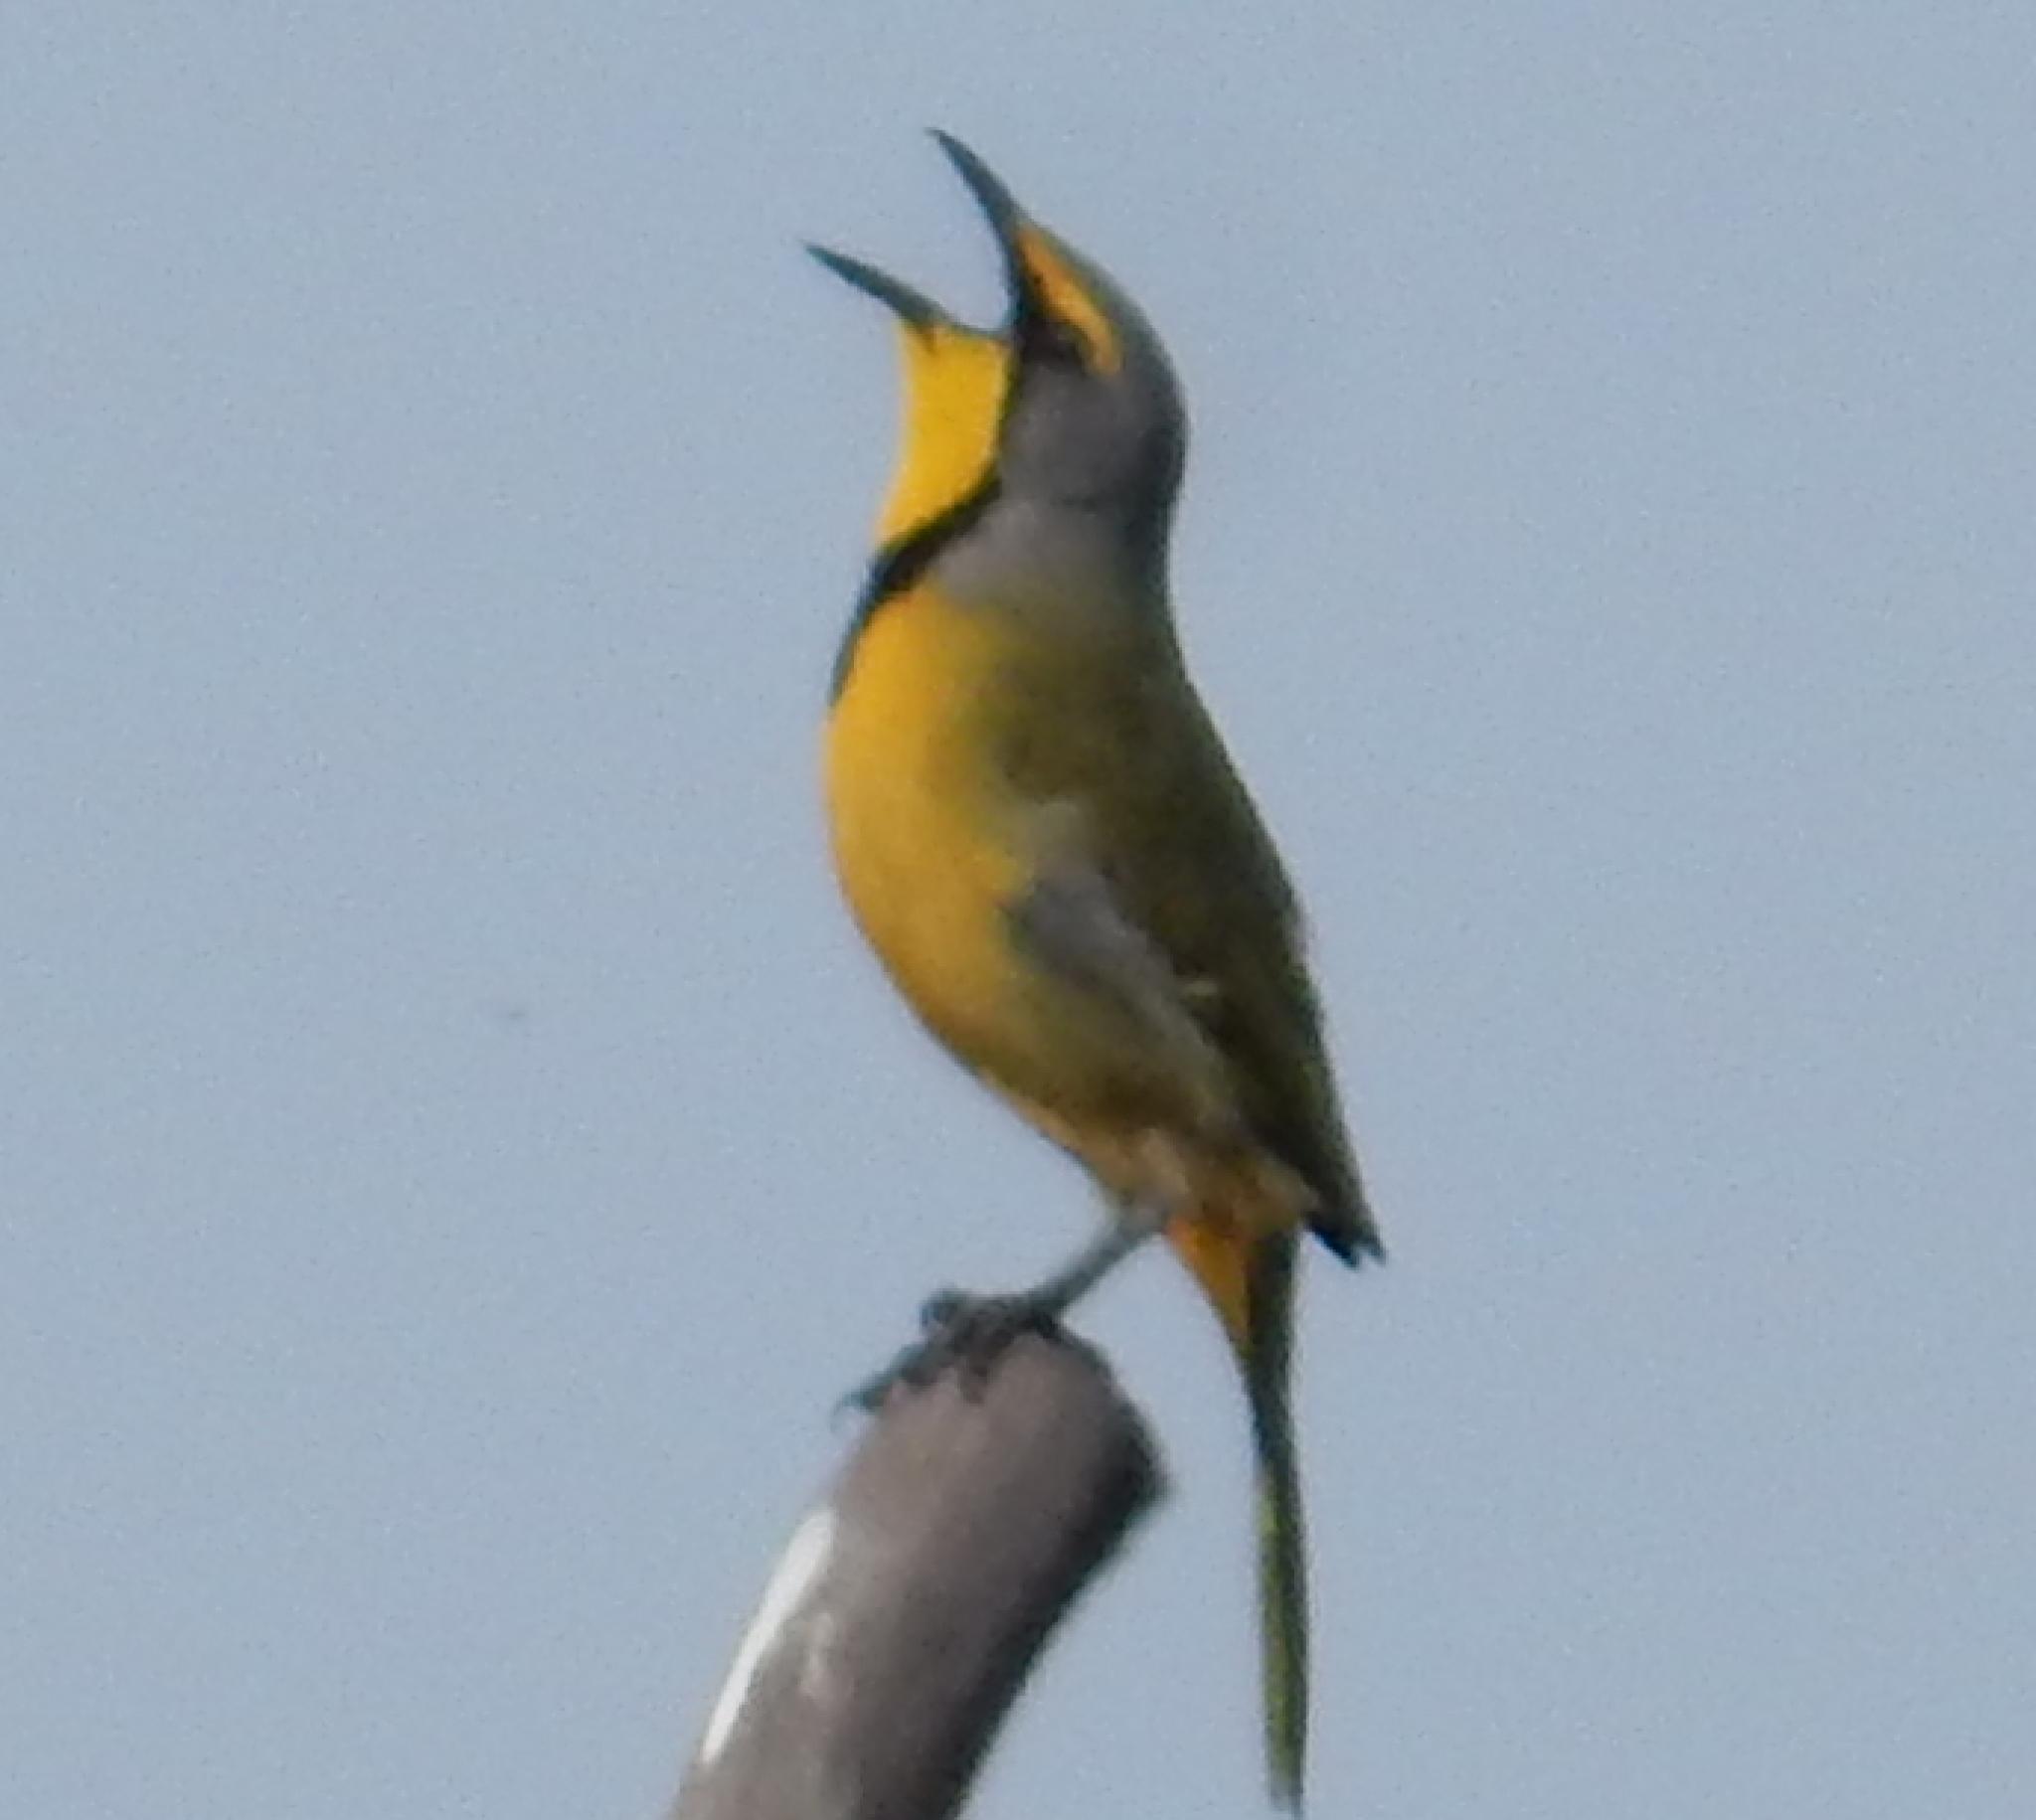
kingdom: Animalia
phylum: Chordata
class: Aves
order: Passeriformes
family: Malaconotidae
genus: Telophorus
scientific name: Telophorus zeylonus
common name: Bokmakierie
